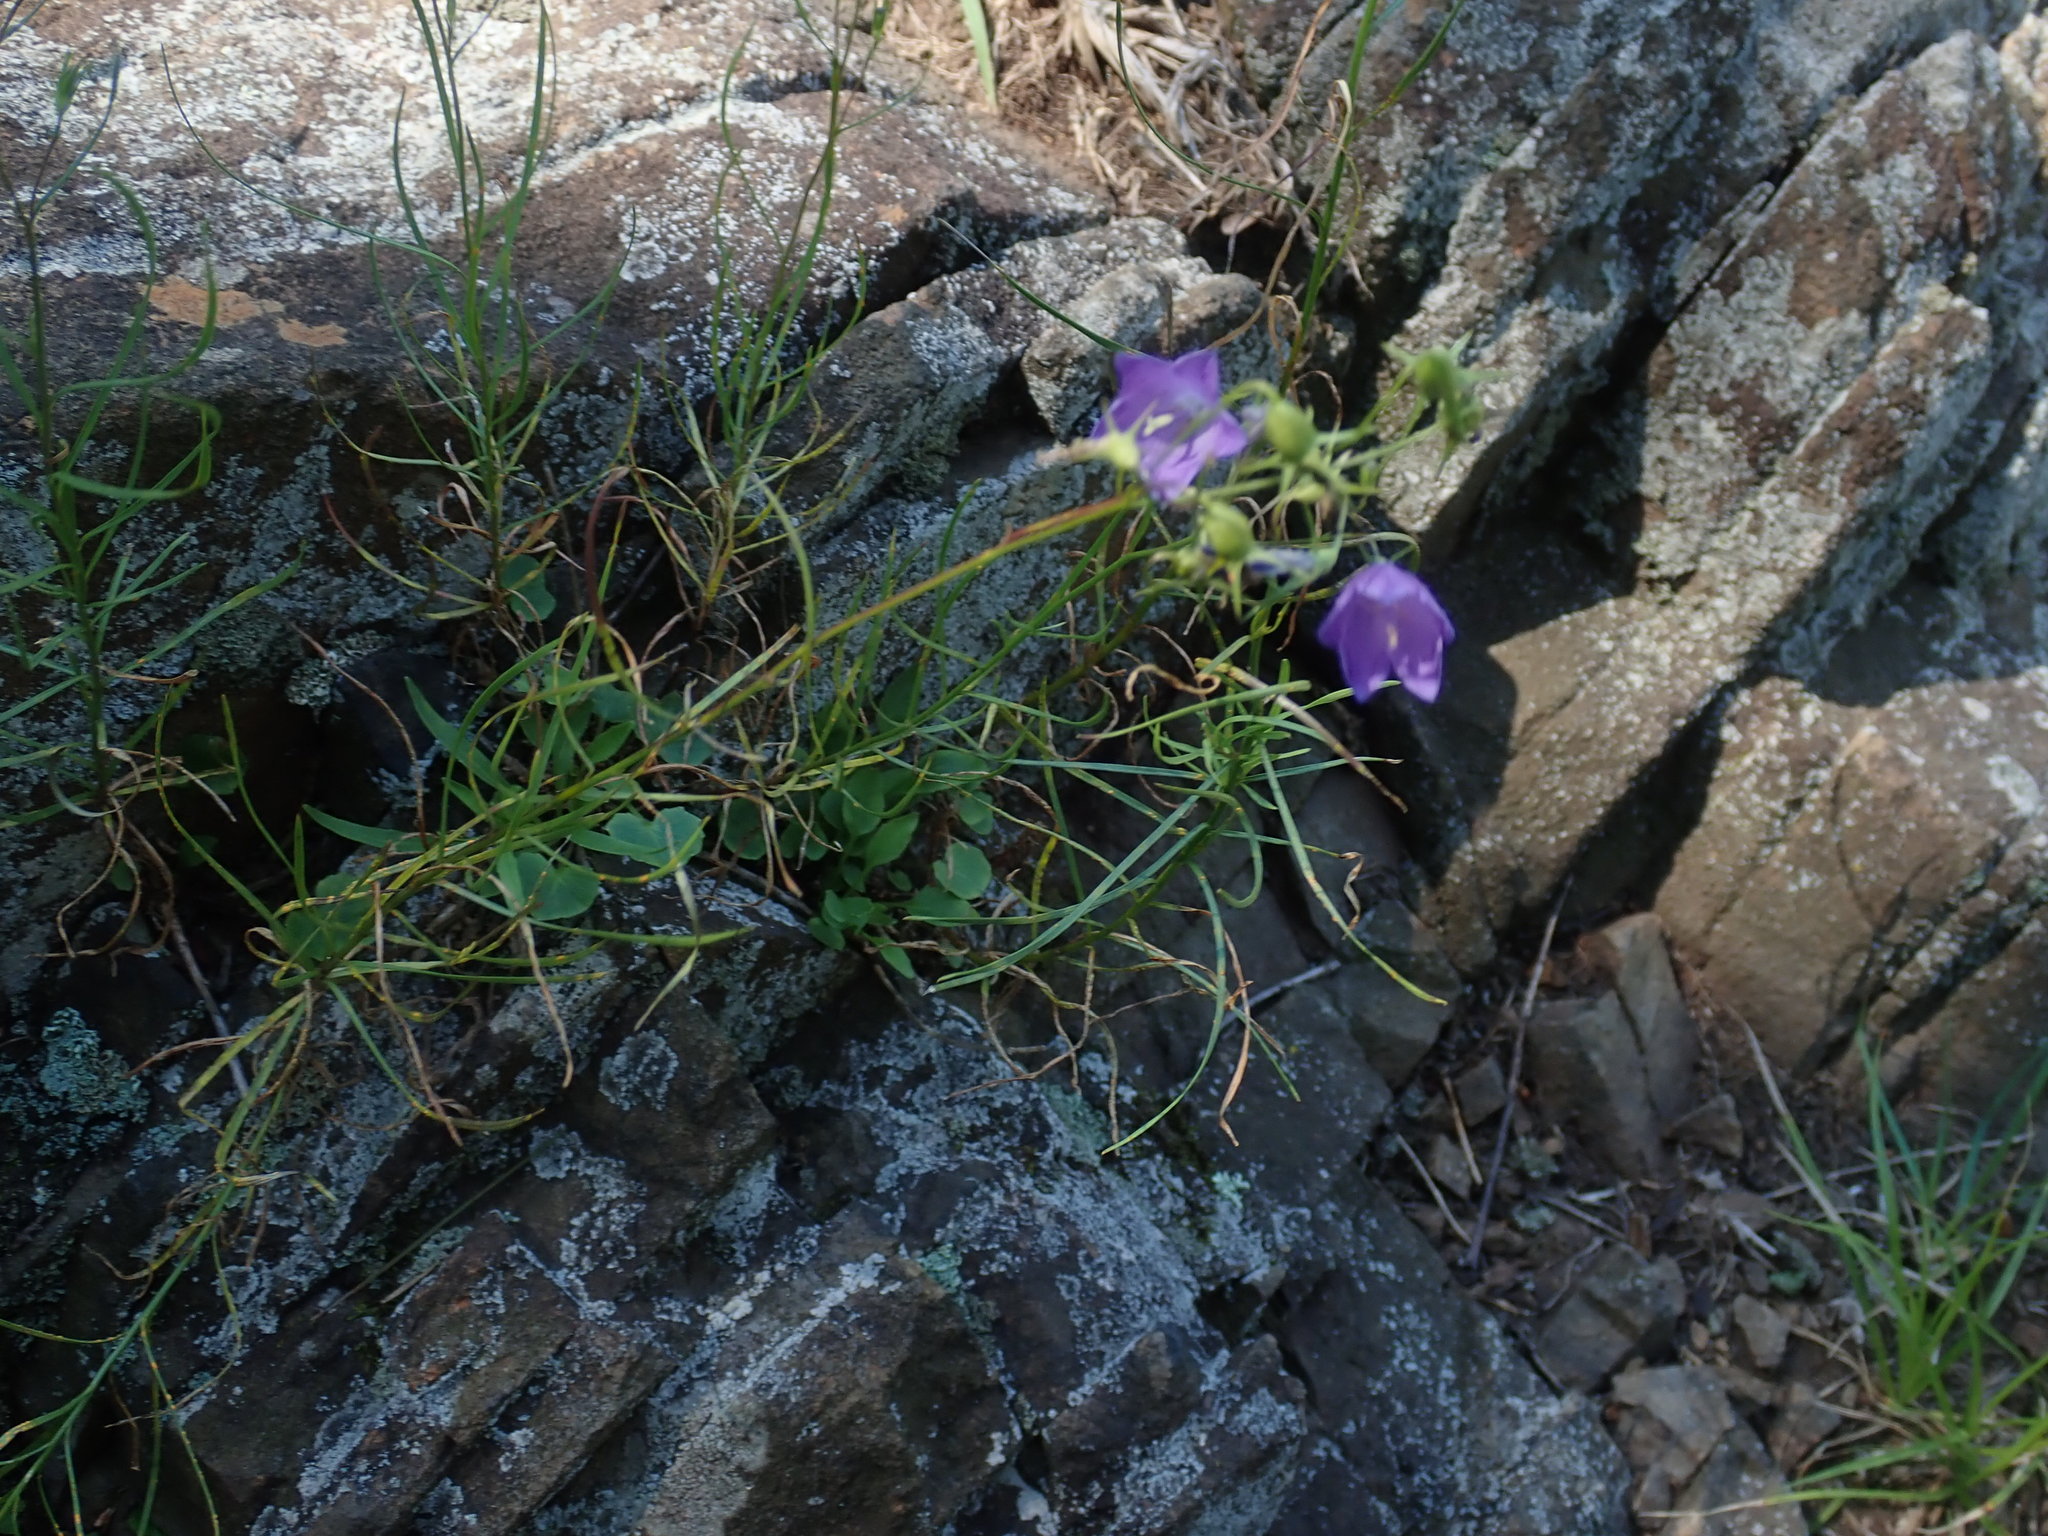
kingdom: Plantae
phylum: Tracheophyta
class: Magnoliopsida
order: Asterales
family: Campanulaceae
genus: Campanula
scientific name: Campanula intercedens
